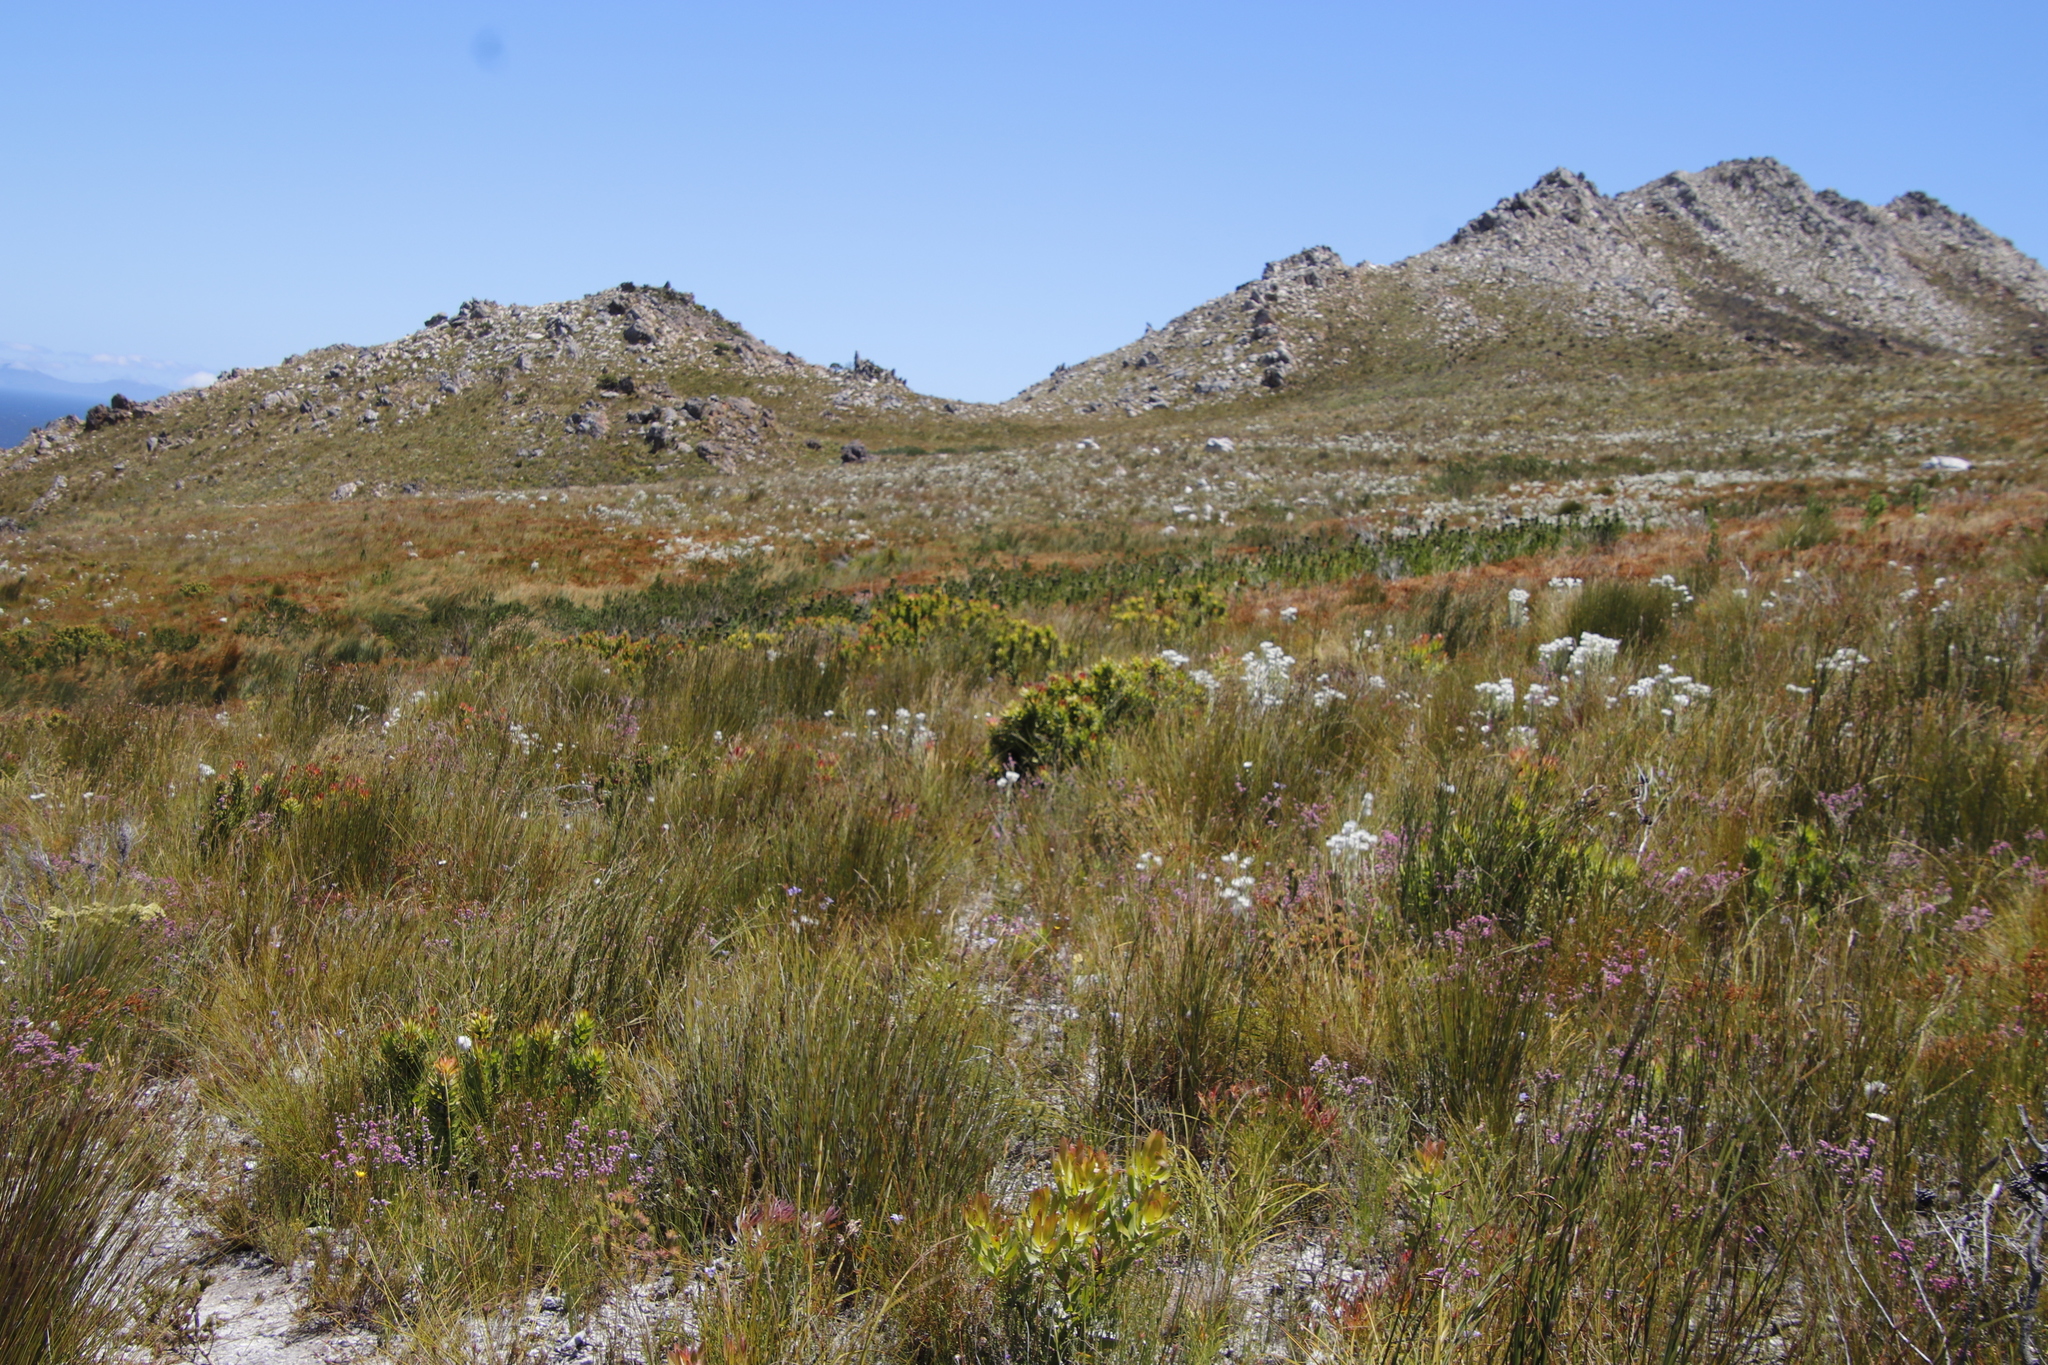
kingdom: Plantae
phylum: Tracheophyta
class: Magnoliopsida
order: Proteales
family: Proteaceae
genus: Mimetes
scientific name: Mimetes cucullatus
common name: Common pagoda
